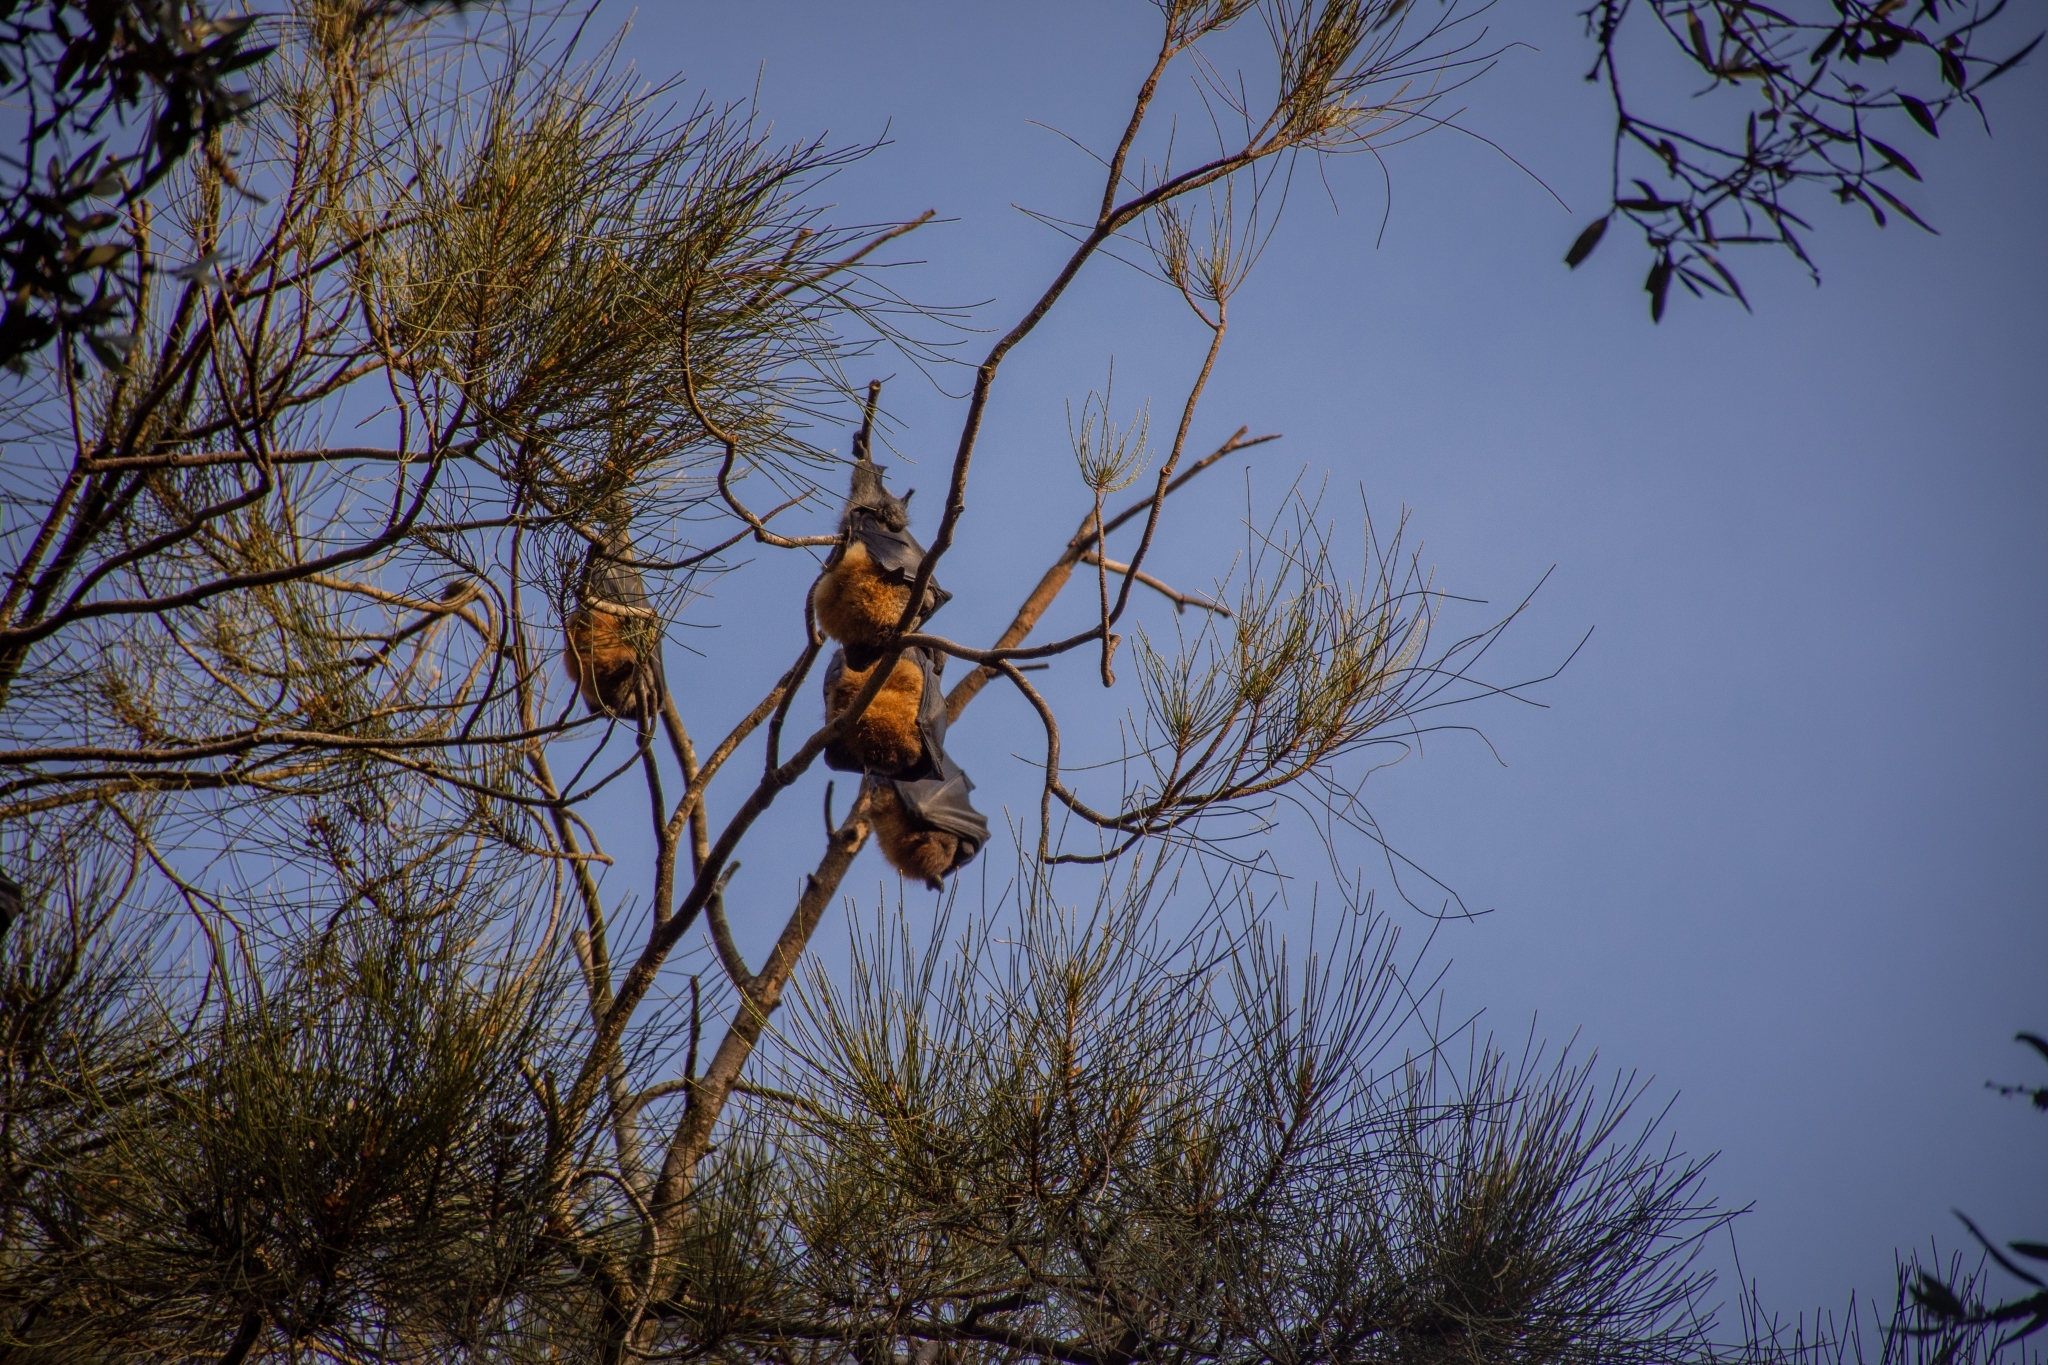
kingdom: Animalia
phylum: Chordata
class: Mammalia
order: Chiroptera
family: Pteropodidae
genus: Pteropus
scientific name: Pteropus poliocephalus
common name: Gray-headed flying fox
